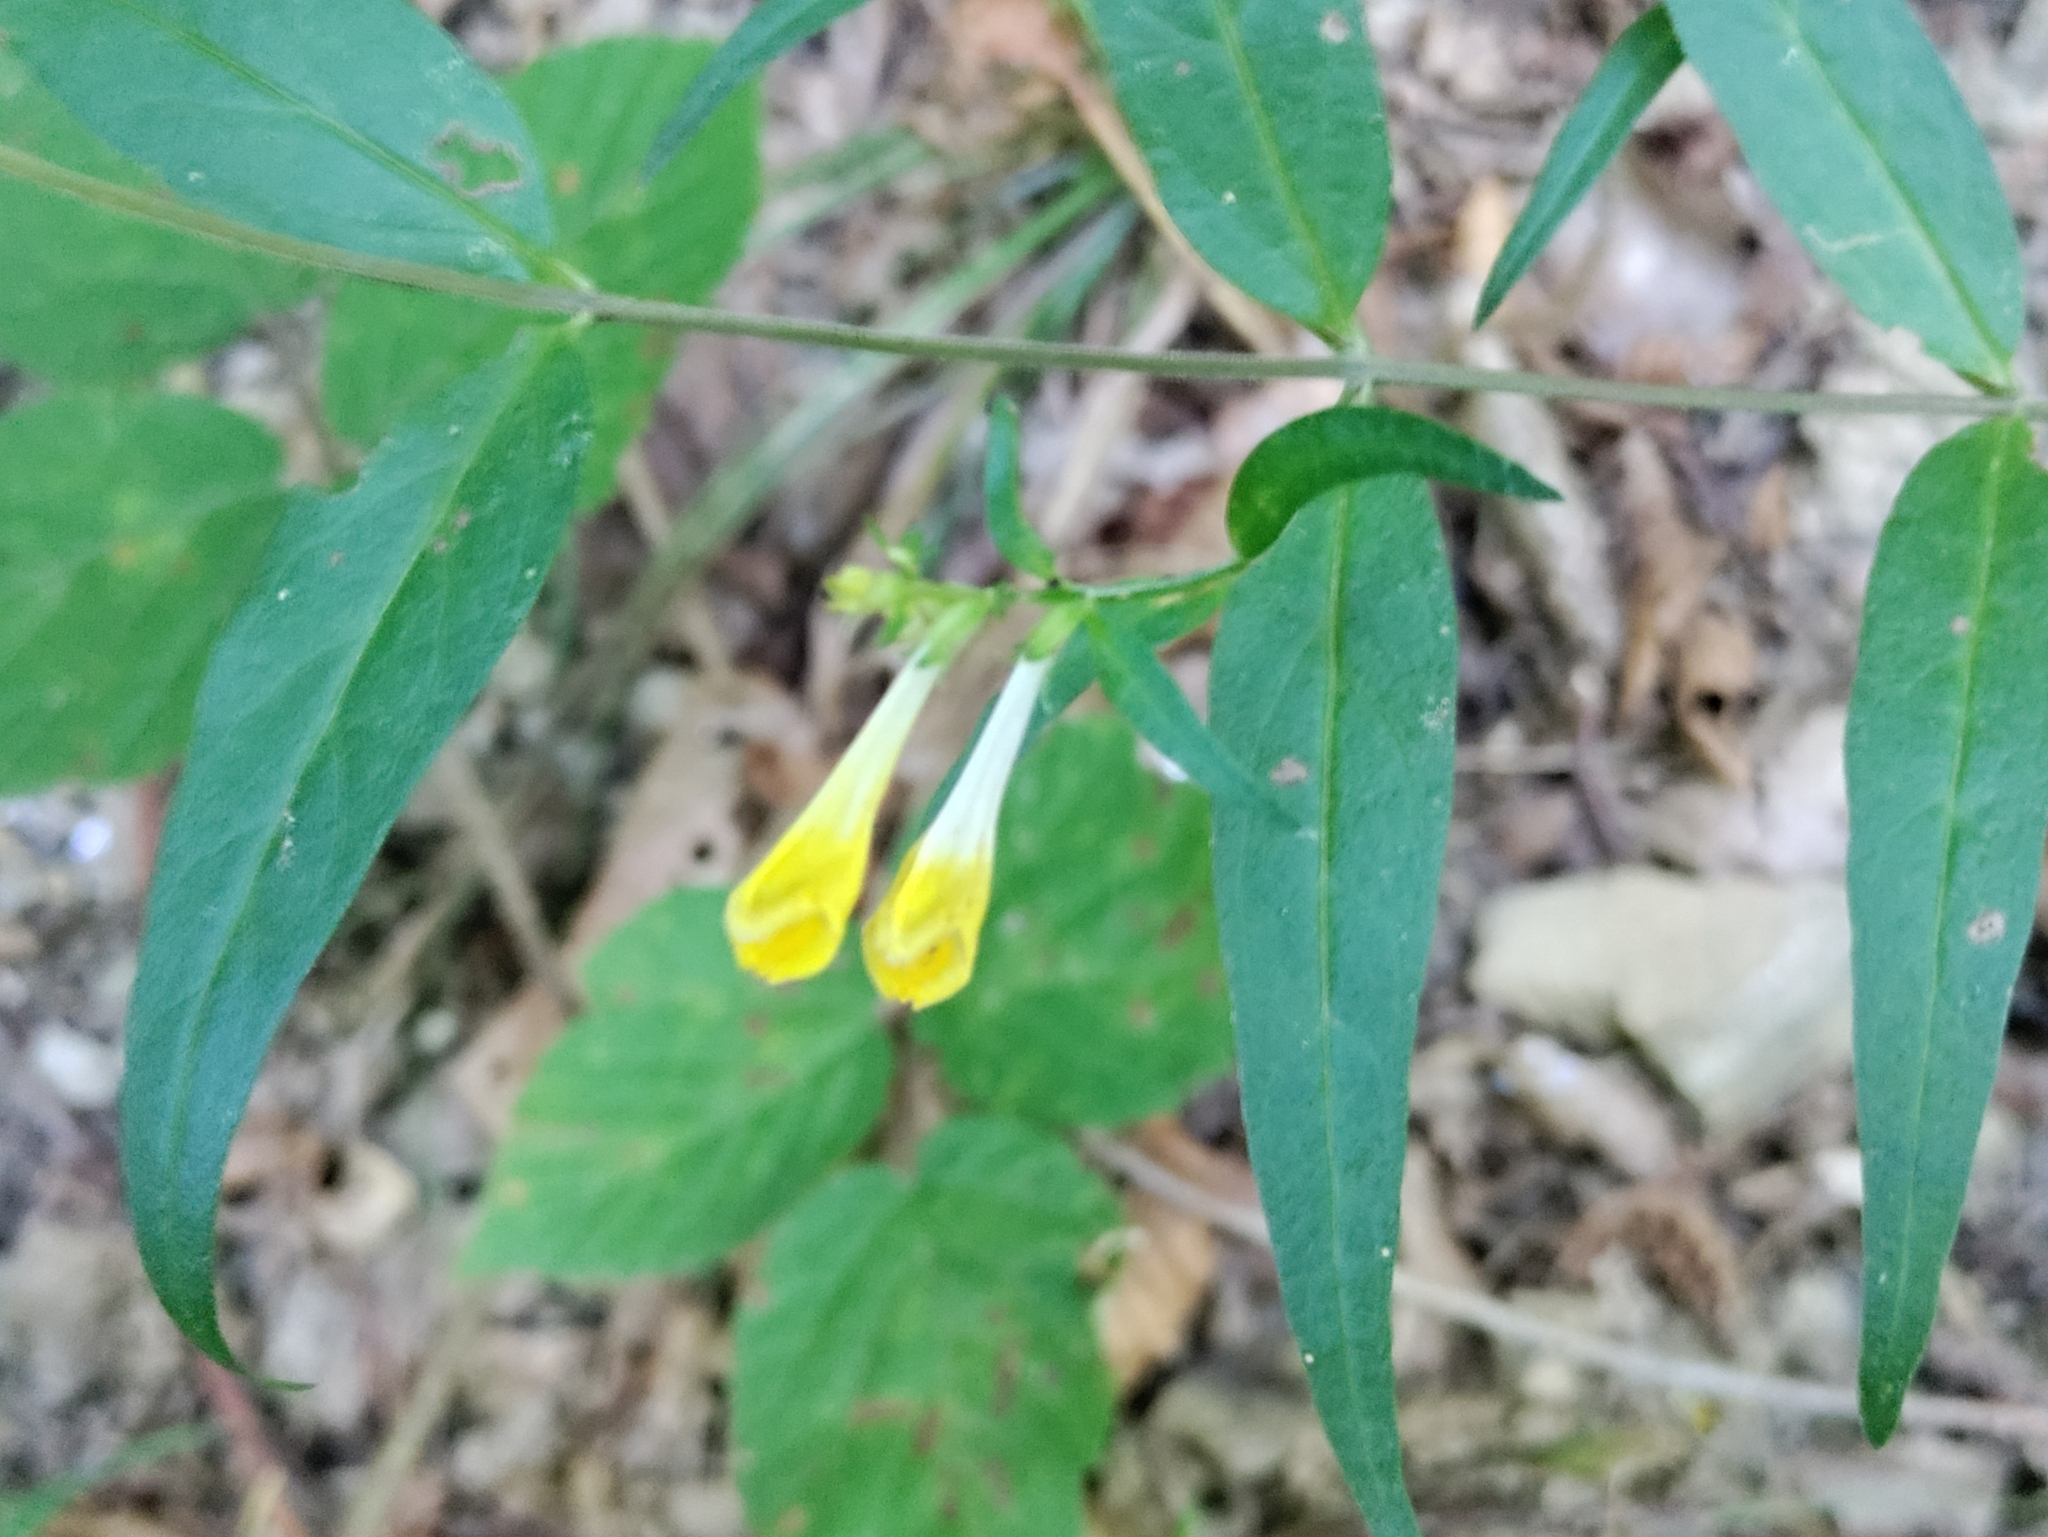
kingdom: Plantae
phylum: Tracheophyta
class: Magnoliopsida
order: Lamiales
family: Orobanchaceae
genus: Melampyrum
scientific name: Melampyrum pratense
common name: Common cow-wheat
